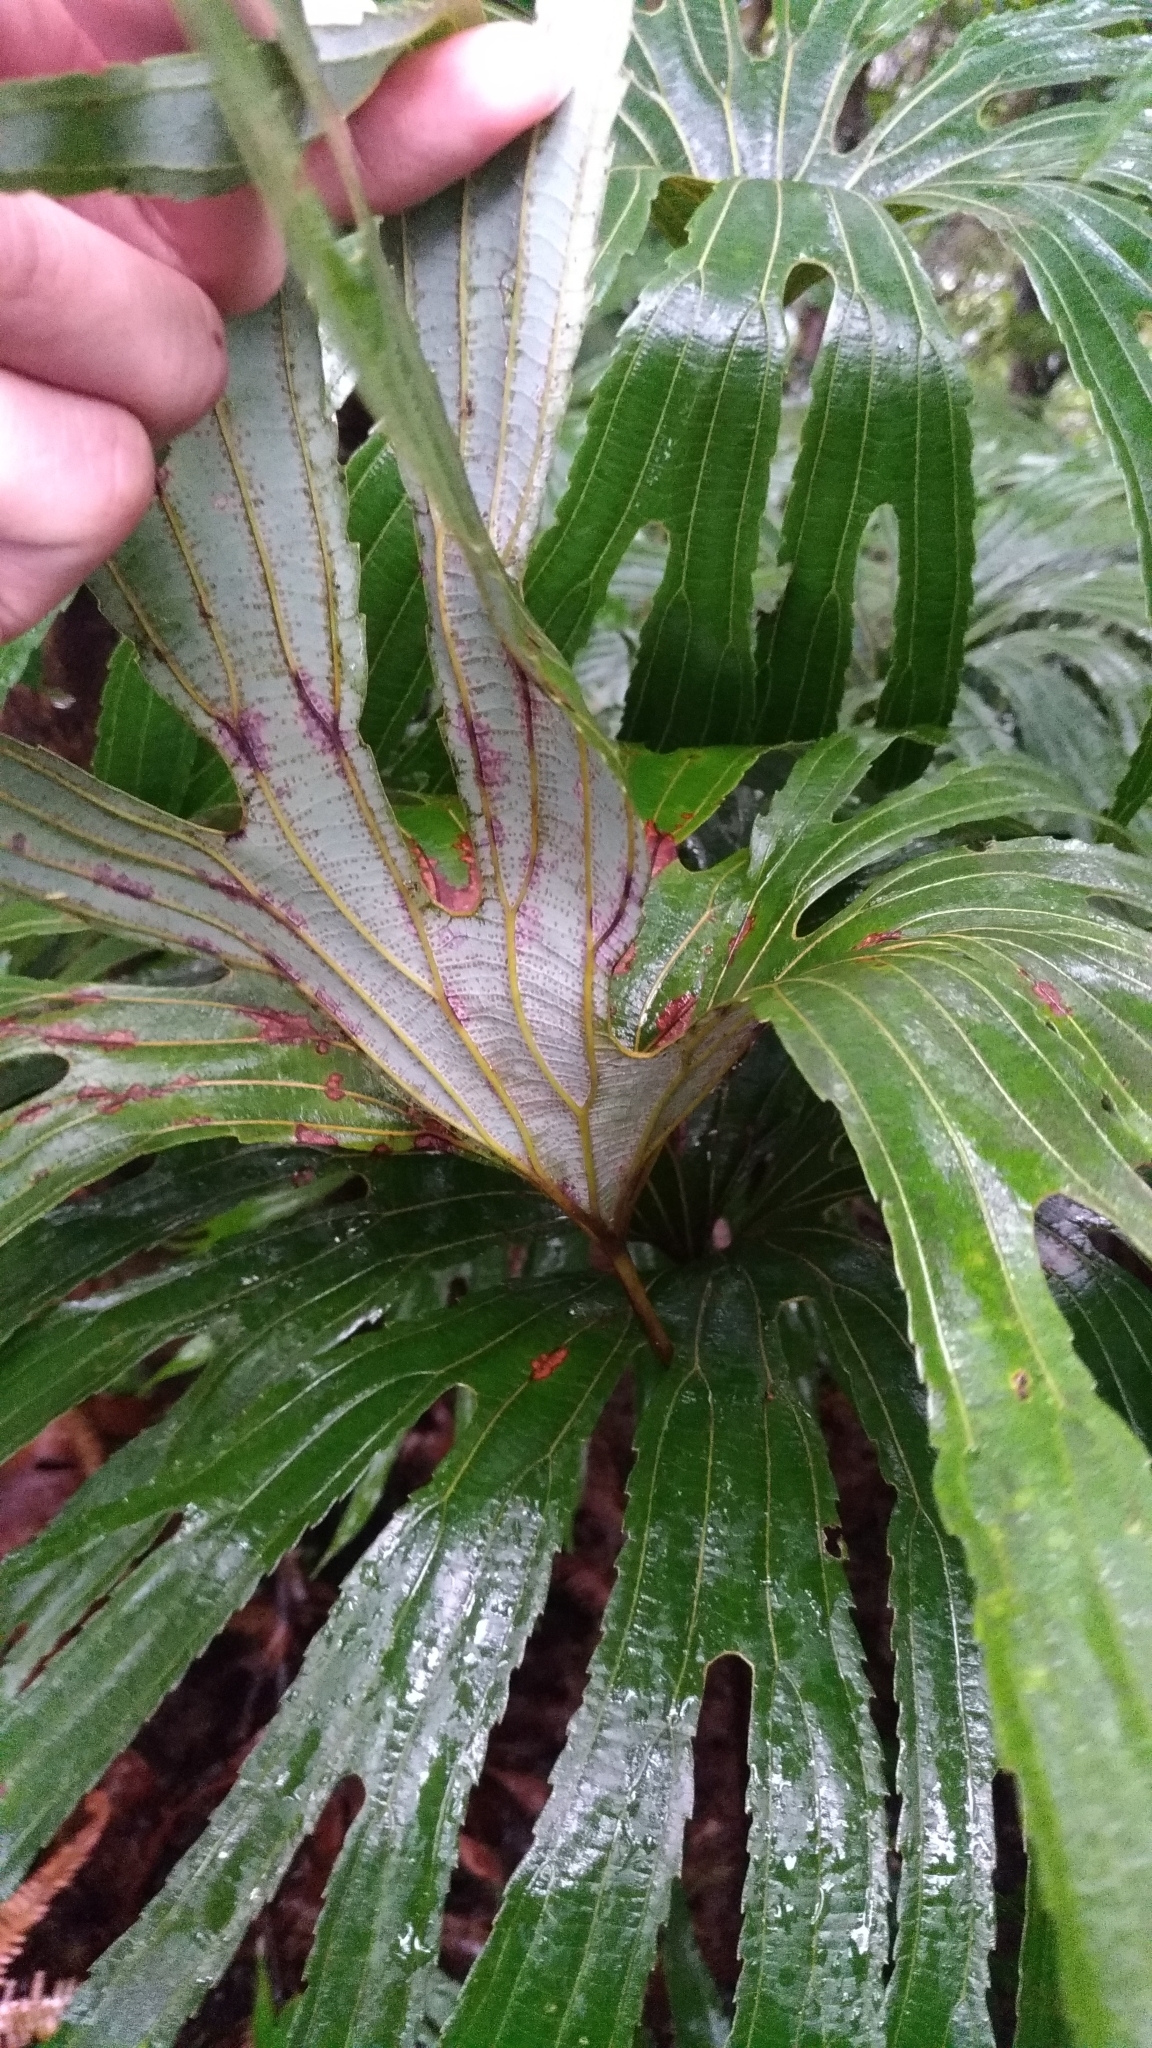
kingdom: Plantae
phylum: Tracheophyta
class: Polypodiopsida
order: Gleicheniales
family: Dipteridaceae
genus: Dipteris
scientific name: Dipteris conjugata
